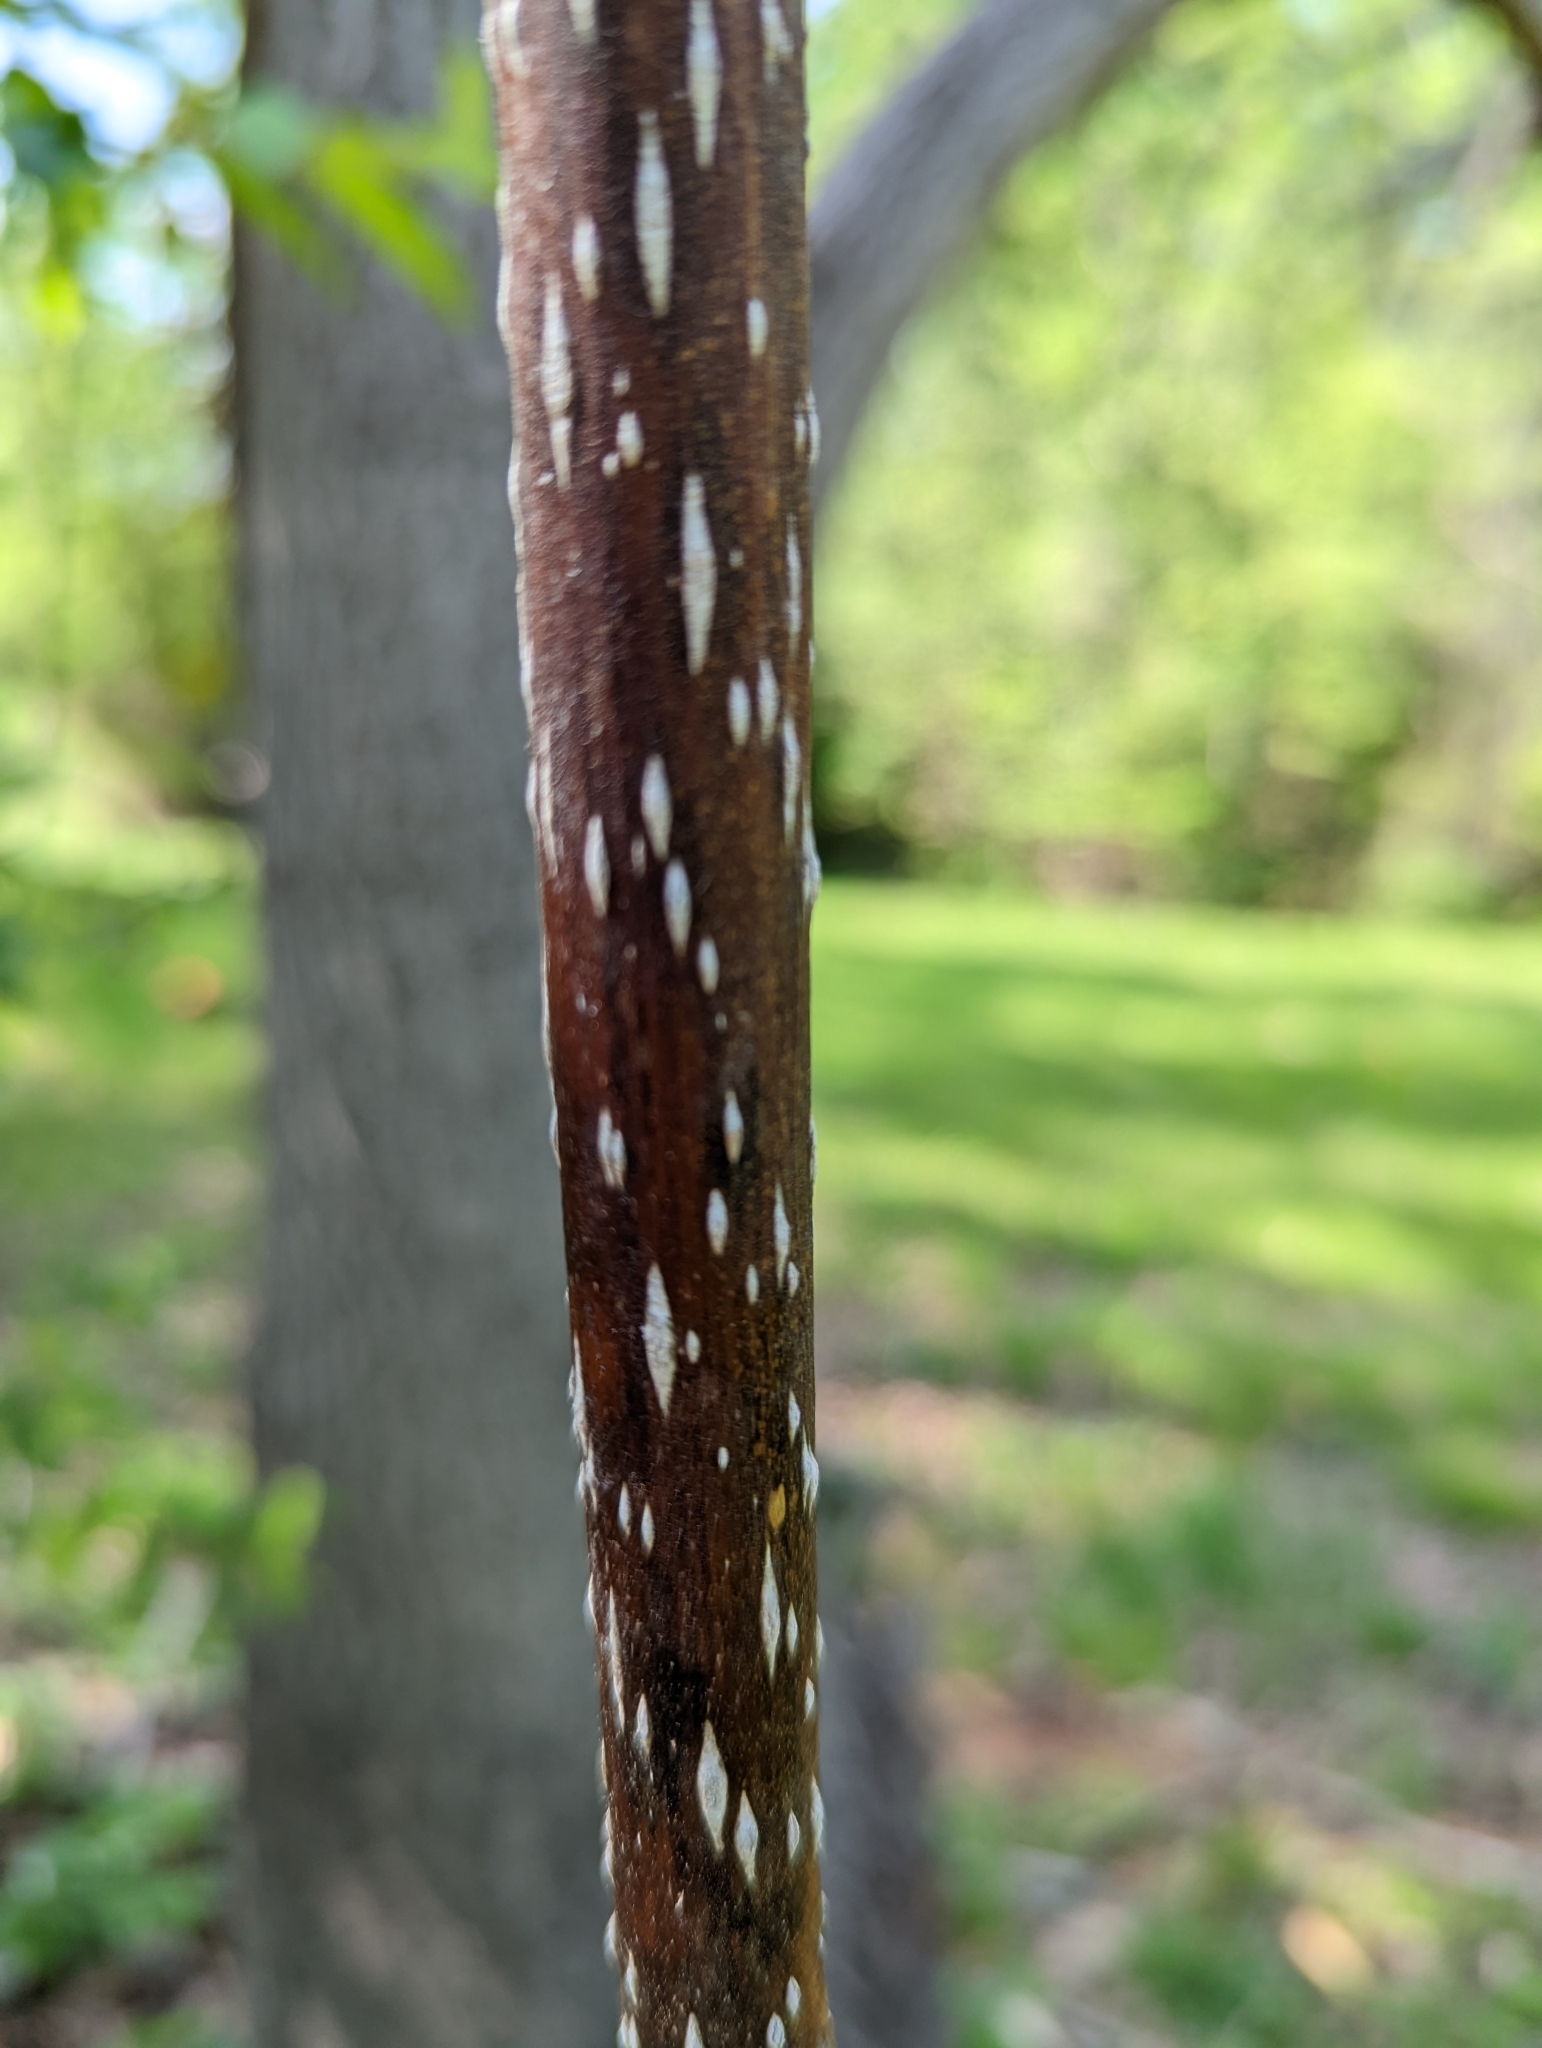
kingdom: Plantae
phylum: Tracheophyta
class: Magnoliopsida
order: Lamiales
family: Paulowniaceae
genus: Paulownia
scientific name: Paulownia tomentosa
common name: Foxglove-tree
